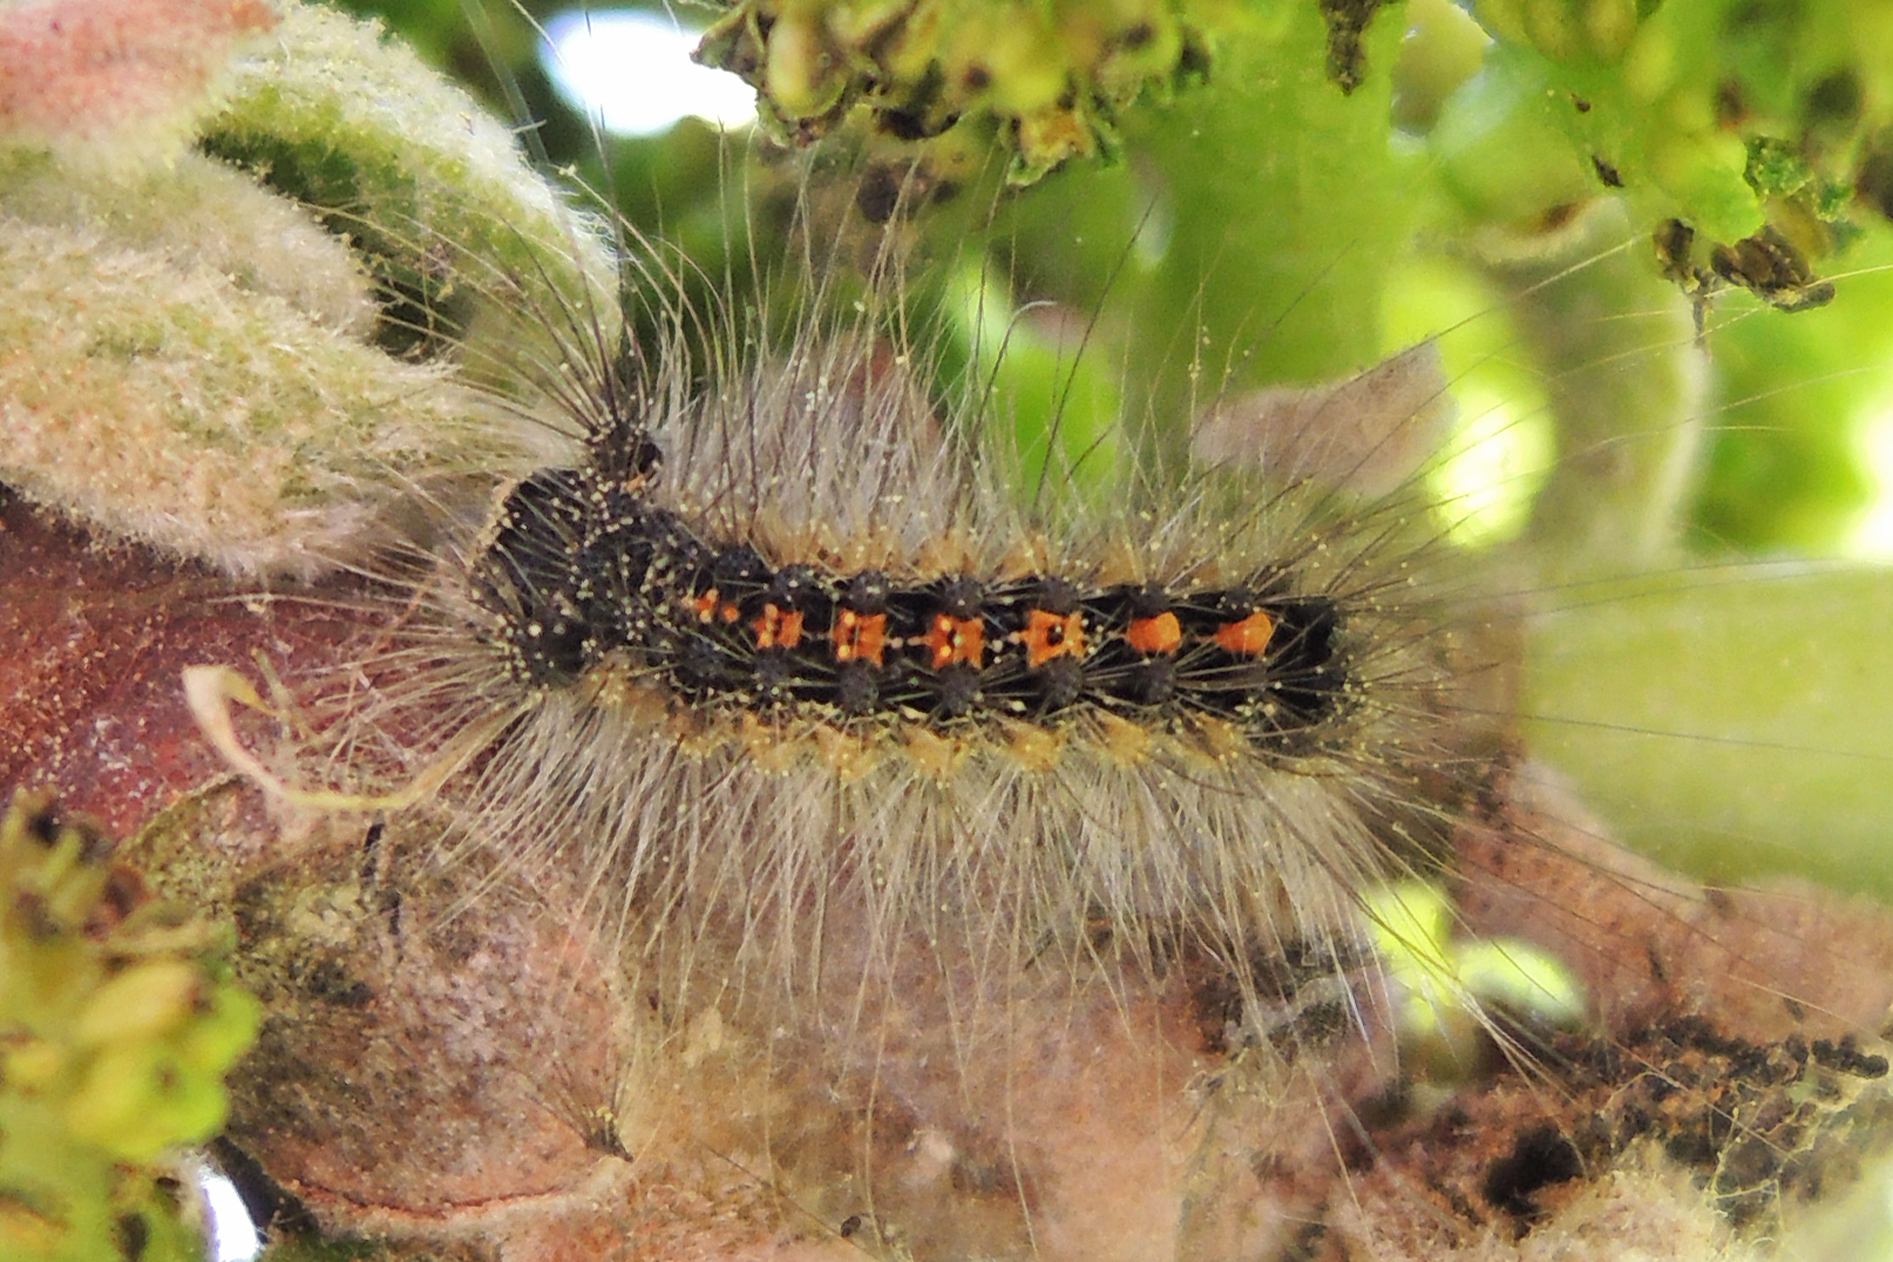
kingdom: Animalia
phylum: Arthropoda
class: Insecta
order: Lepidoptera
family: Erebidae
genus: Lymantria
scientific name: Lymantria dispar
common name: Gypsy moth
